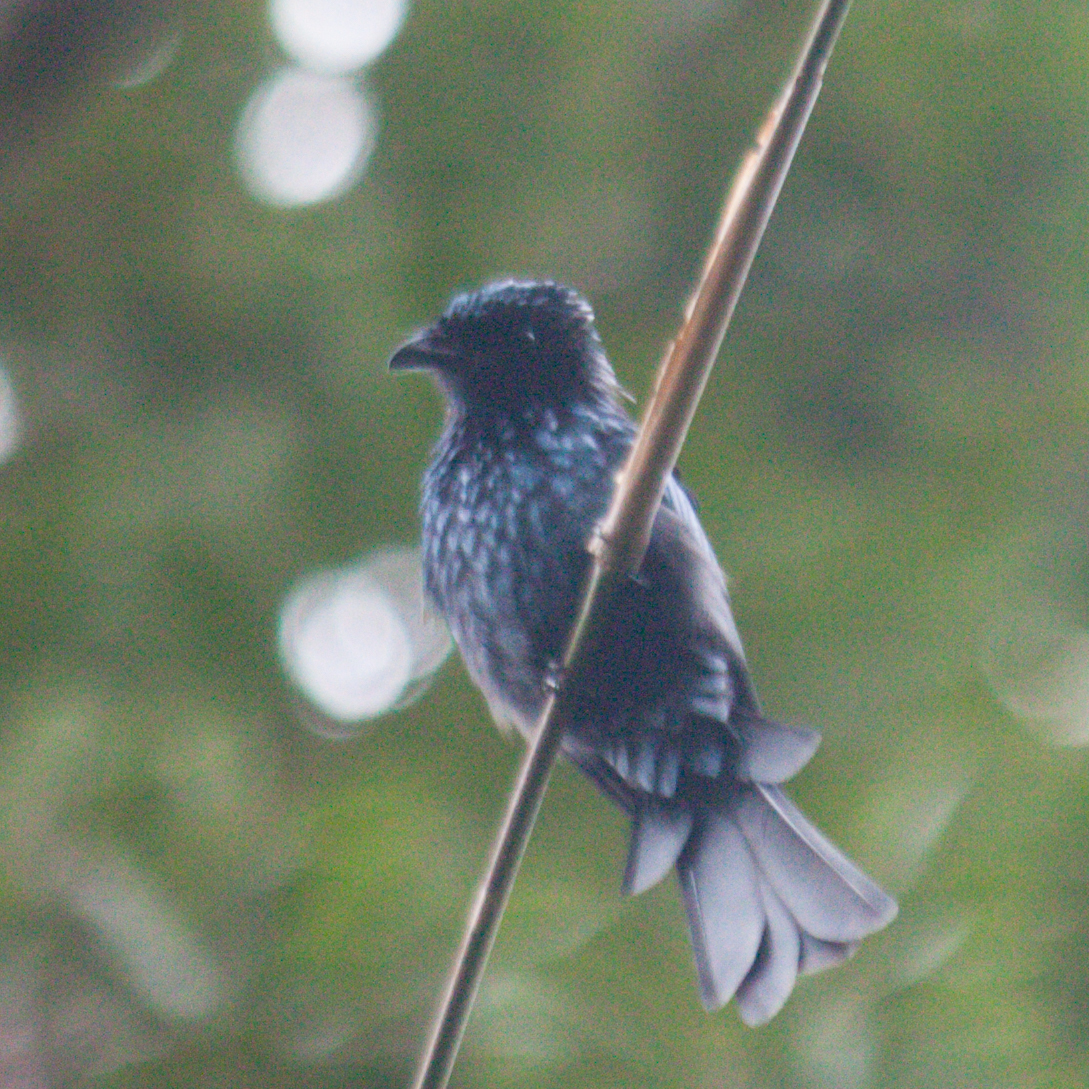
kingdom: Animalia
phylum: Chordata
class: Aves
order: Passeriformes
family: Dicruridae
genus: Dicrurus
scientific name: Dicrurus aeneus
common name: Bronzed drongo
